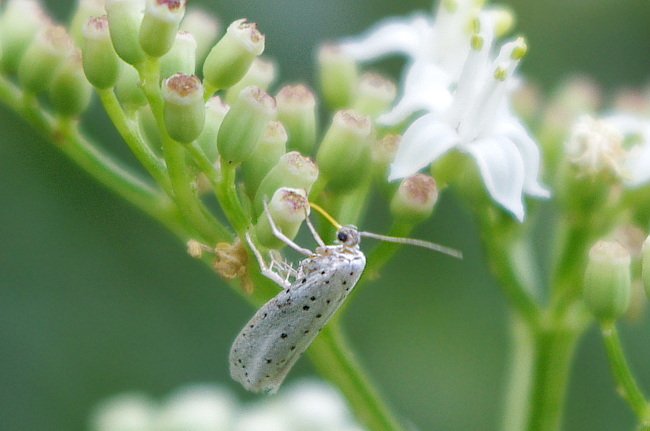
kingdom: Animalia
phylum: Arthropoda
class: Insecta
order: Lepidoptera
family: Yponomeutidae
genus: Yponomeuta
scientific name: Yponomeuta cagnagellus
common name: Spindle ermine
